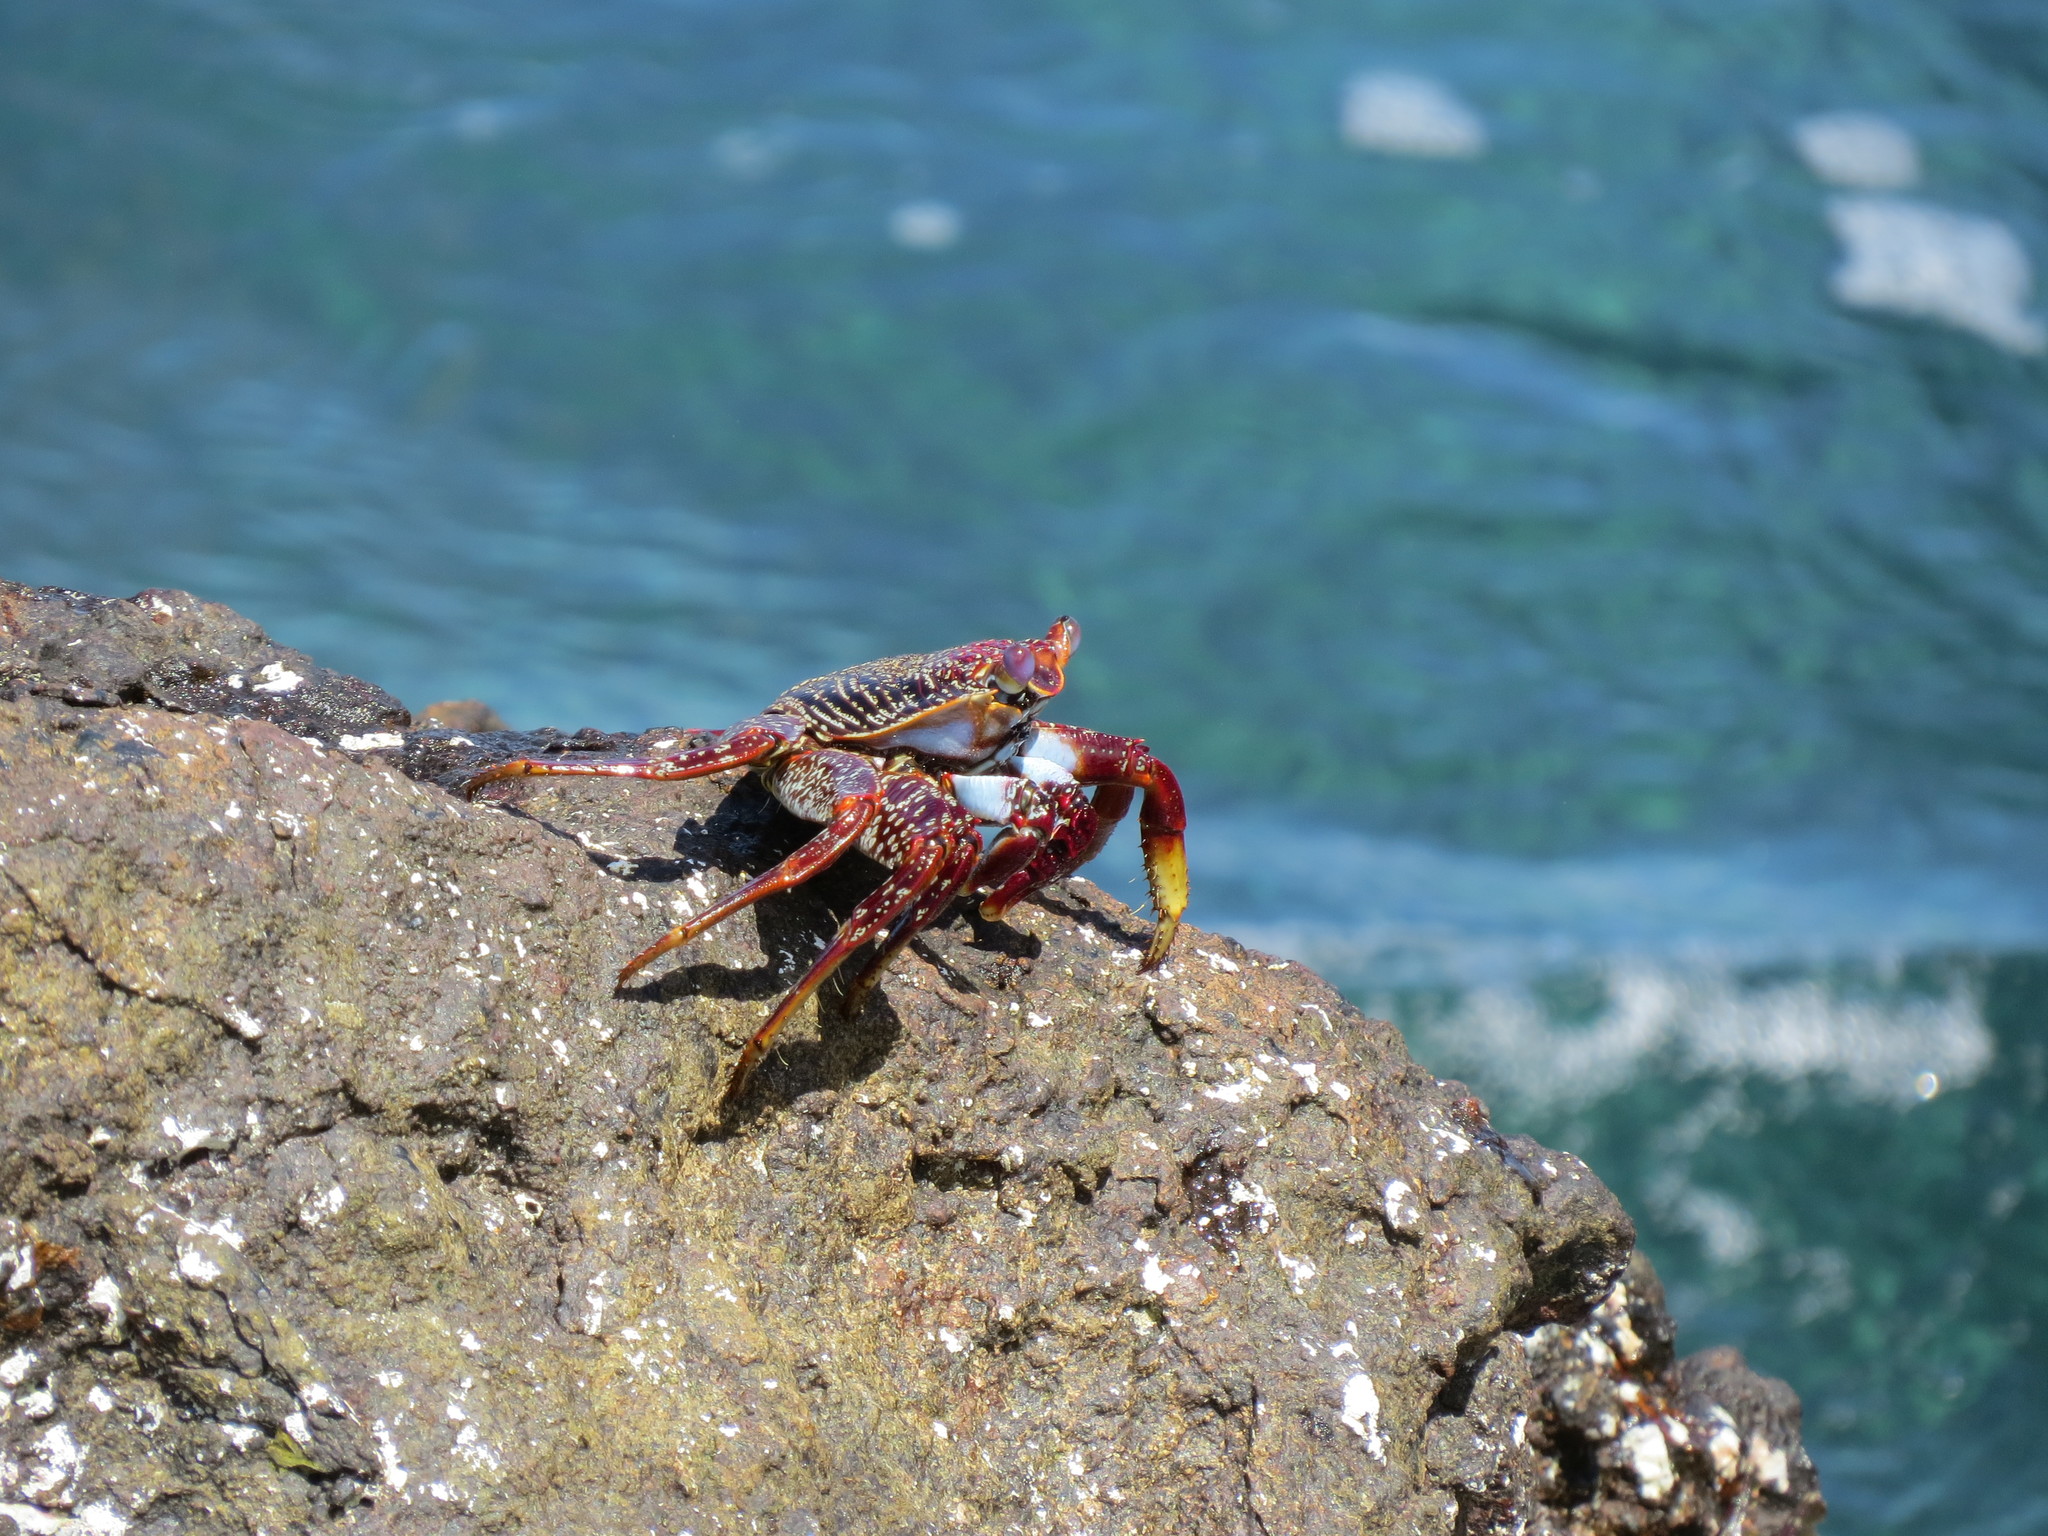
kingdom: Animalia
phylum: Arthropoda
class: Malacostraca
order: Decapoda
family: Grapsidae
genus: Grapsus
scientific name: Grapsus adscensionis
